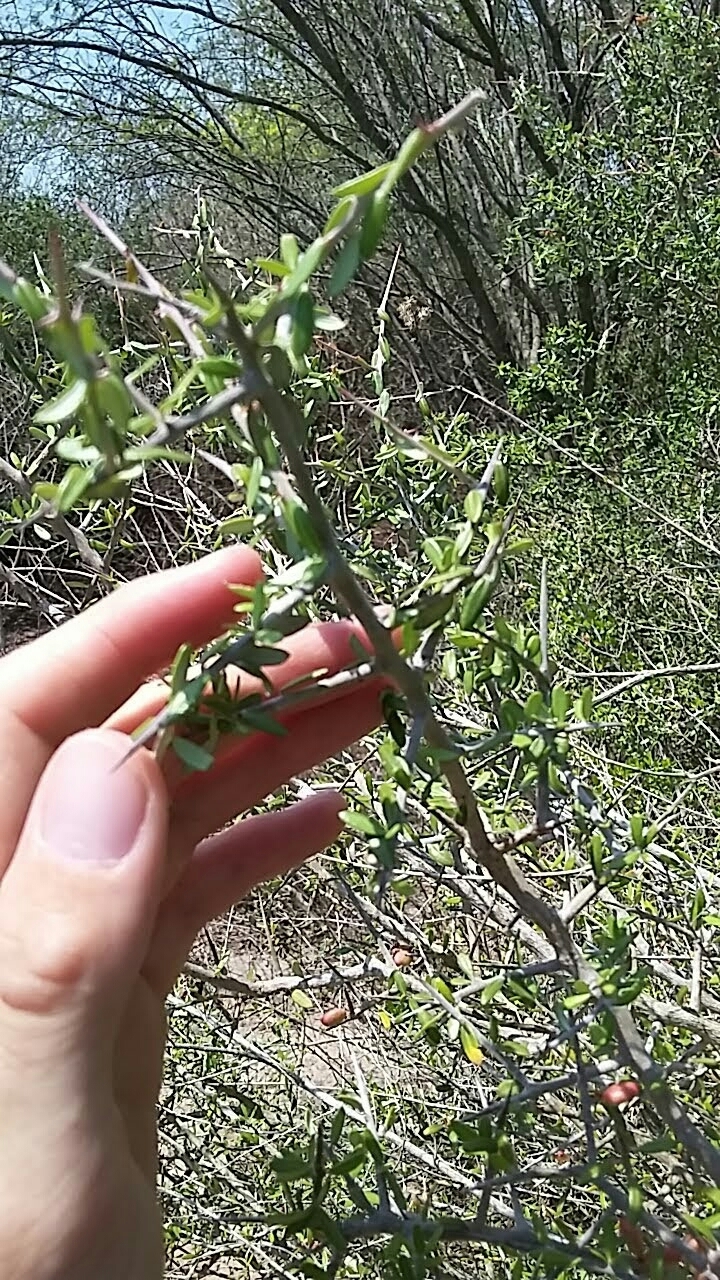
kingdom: Plantae
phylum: Tracheophyta
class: Magnoliopsida
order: Sapindales
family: Simaroubaceae
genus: Castela
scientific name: Castela erecta
